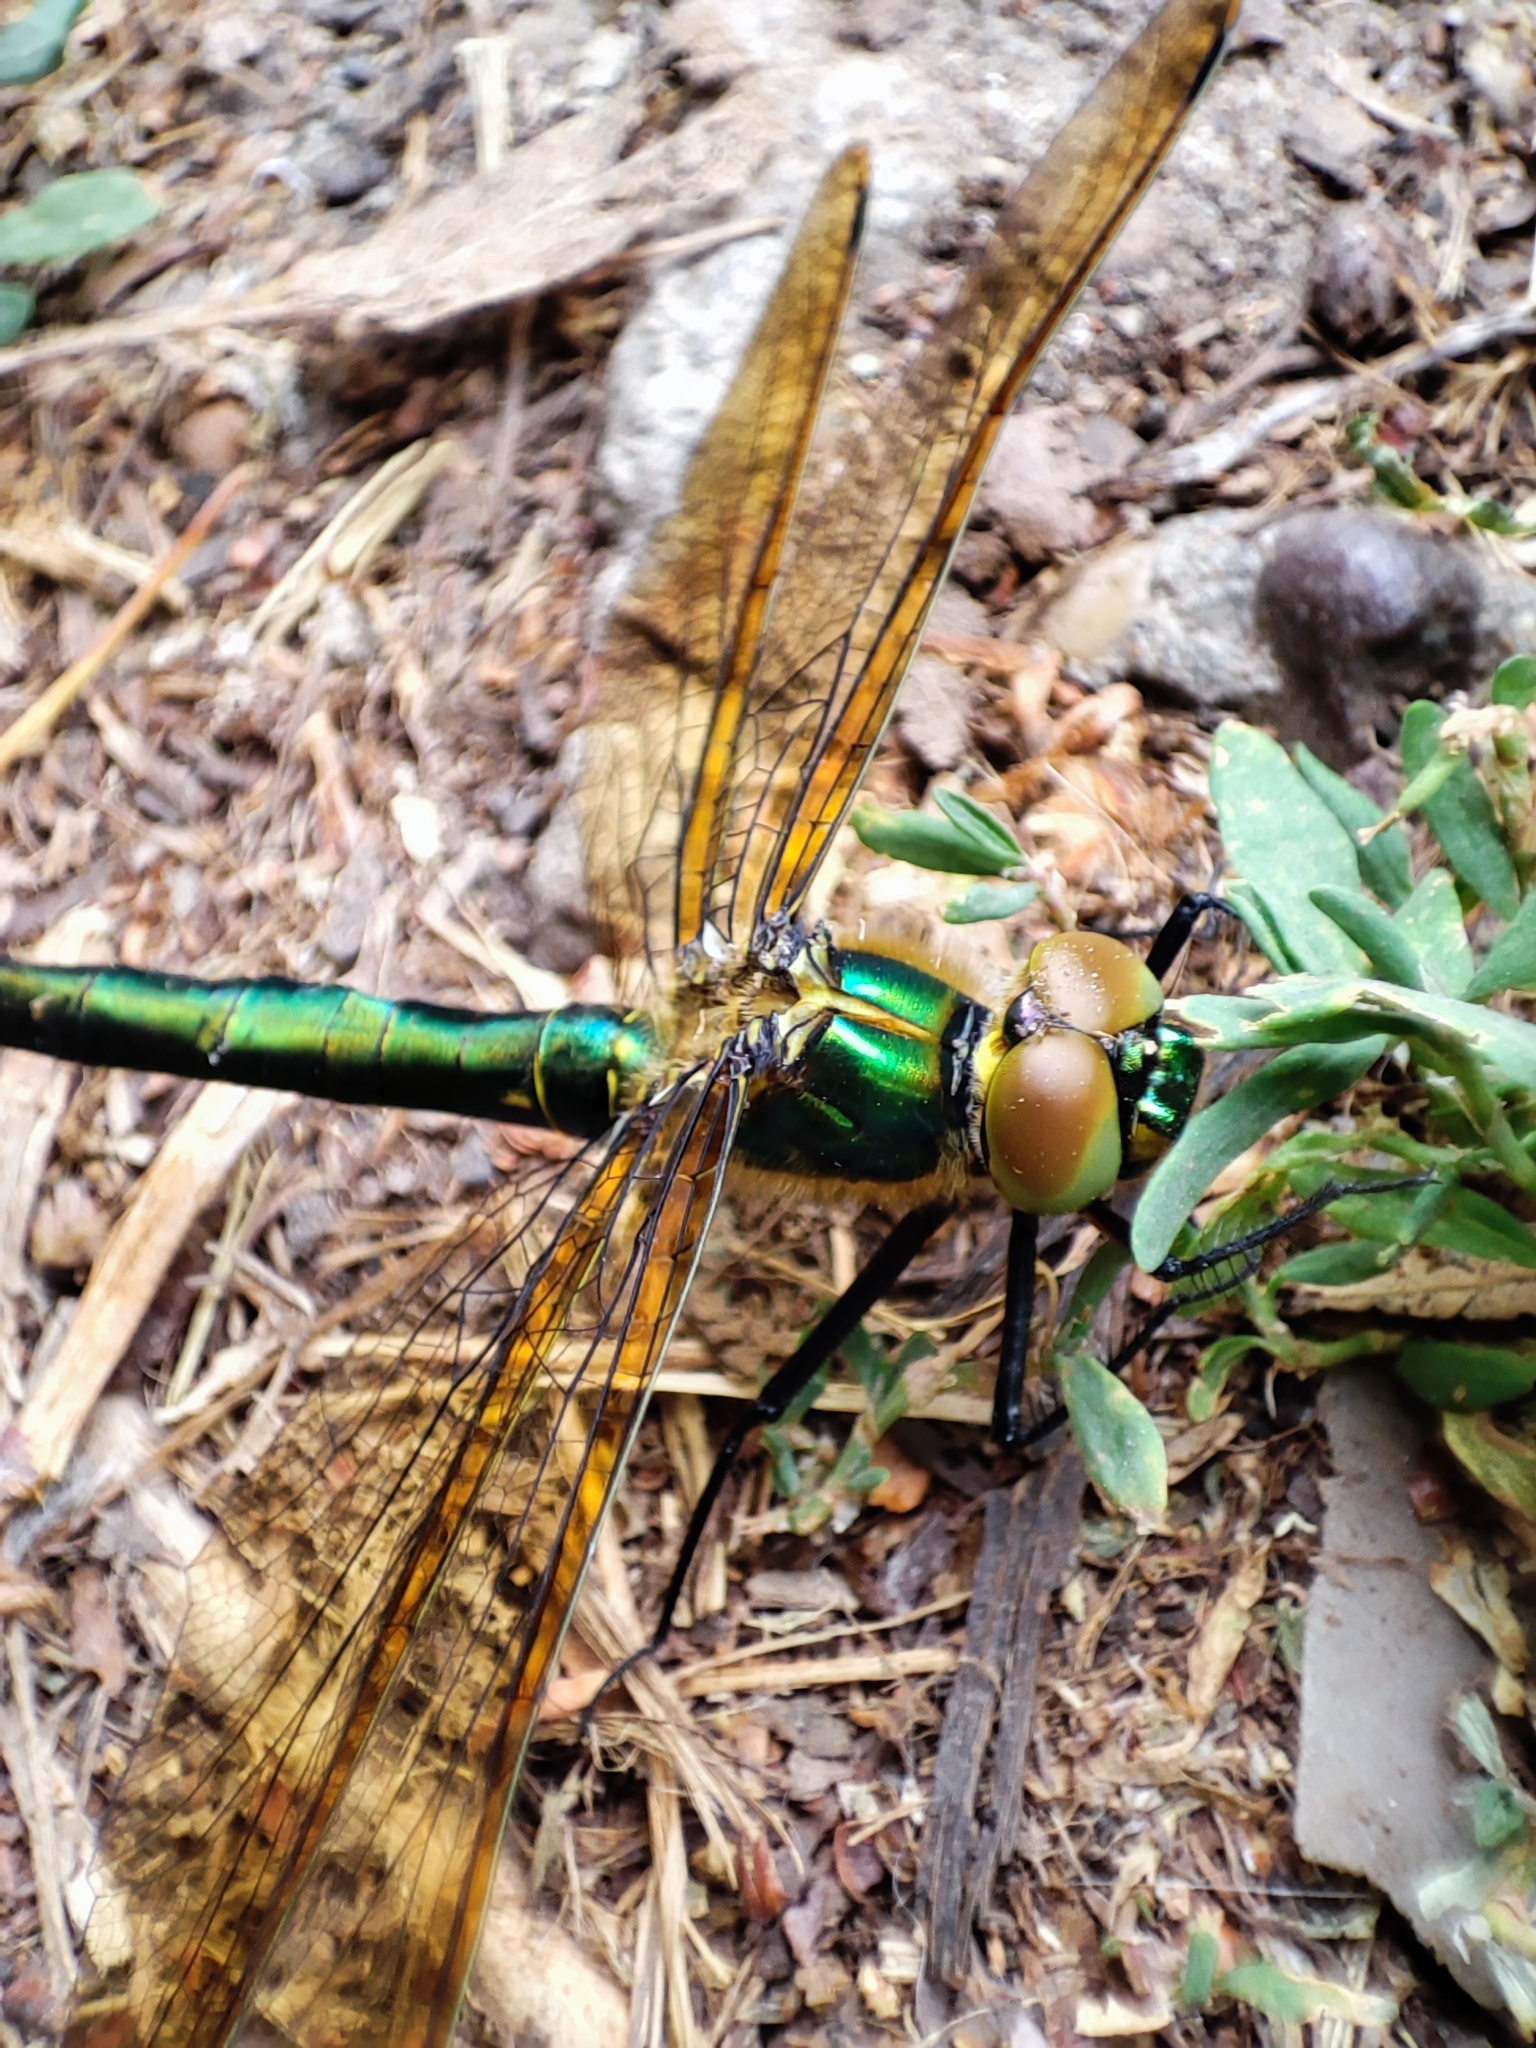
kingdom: Animalia
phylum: Arthropoda
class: Insecta
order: Odonata
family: Corduliidae
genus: Somatochlora
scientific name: Somatochlora metallica
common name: Brilliant emerald
